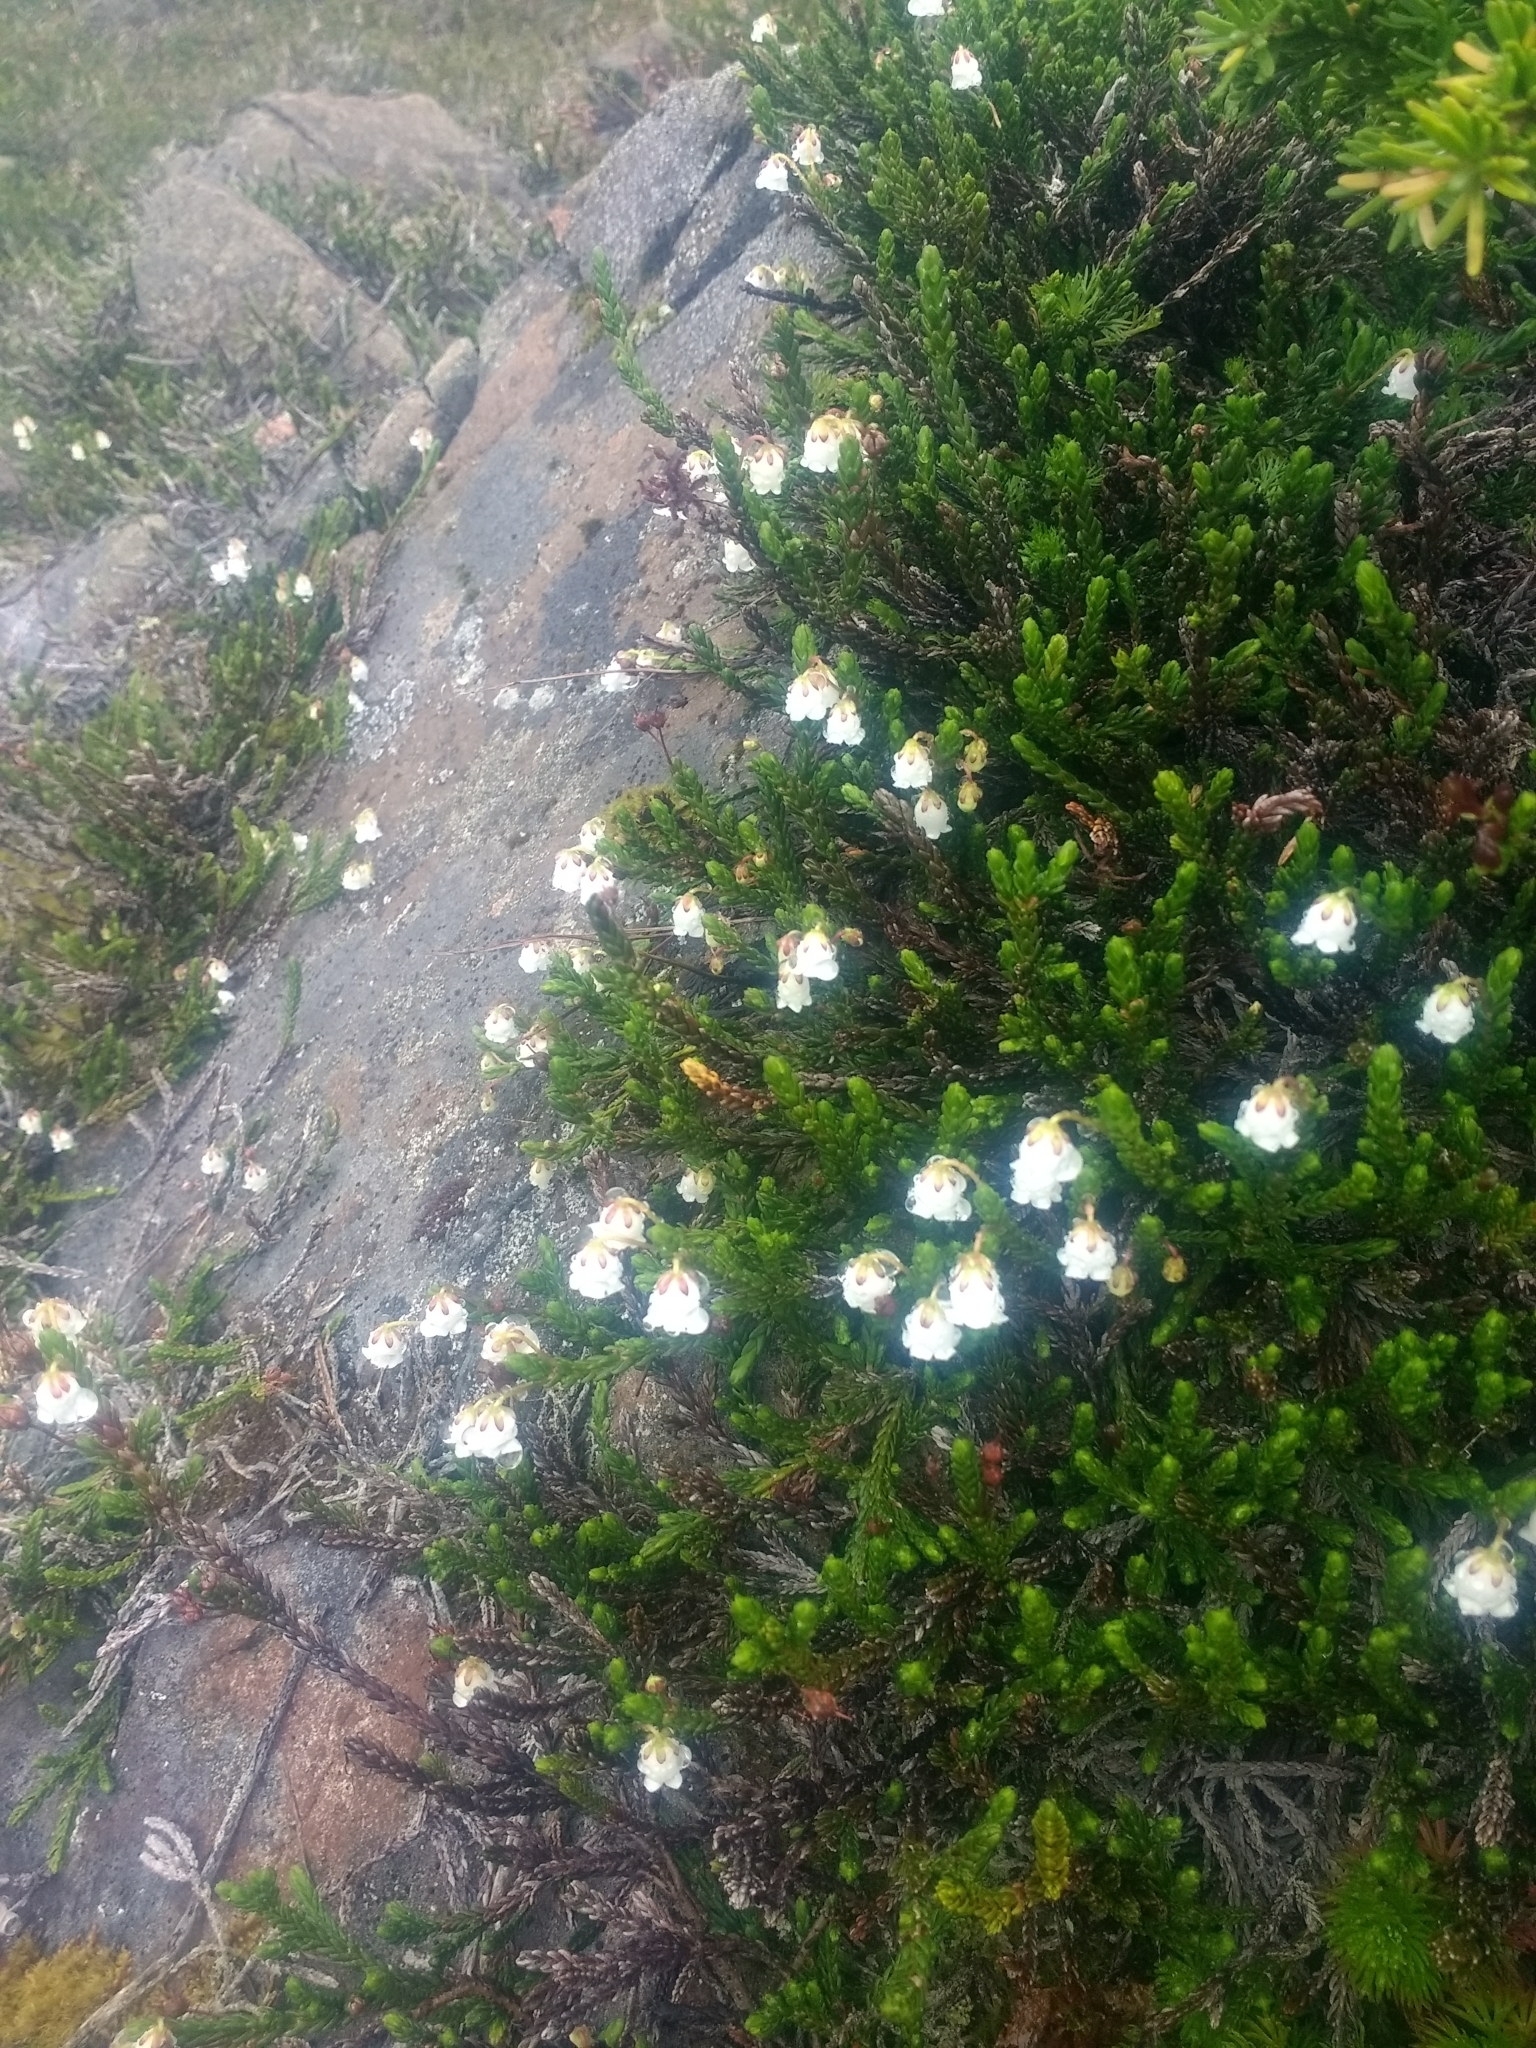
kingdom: Plantae
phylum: Tracheophyta
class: Magnoliopsida
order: Ericales
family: Ericaceae
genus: Cassiope
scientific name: Cassiope mertensiana
